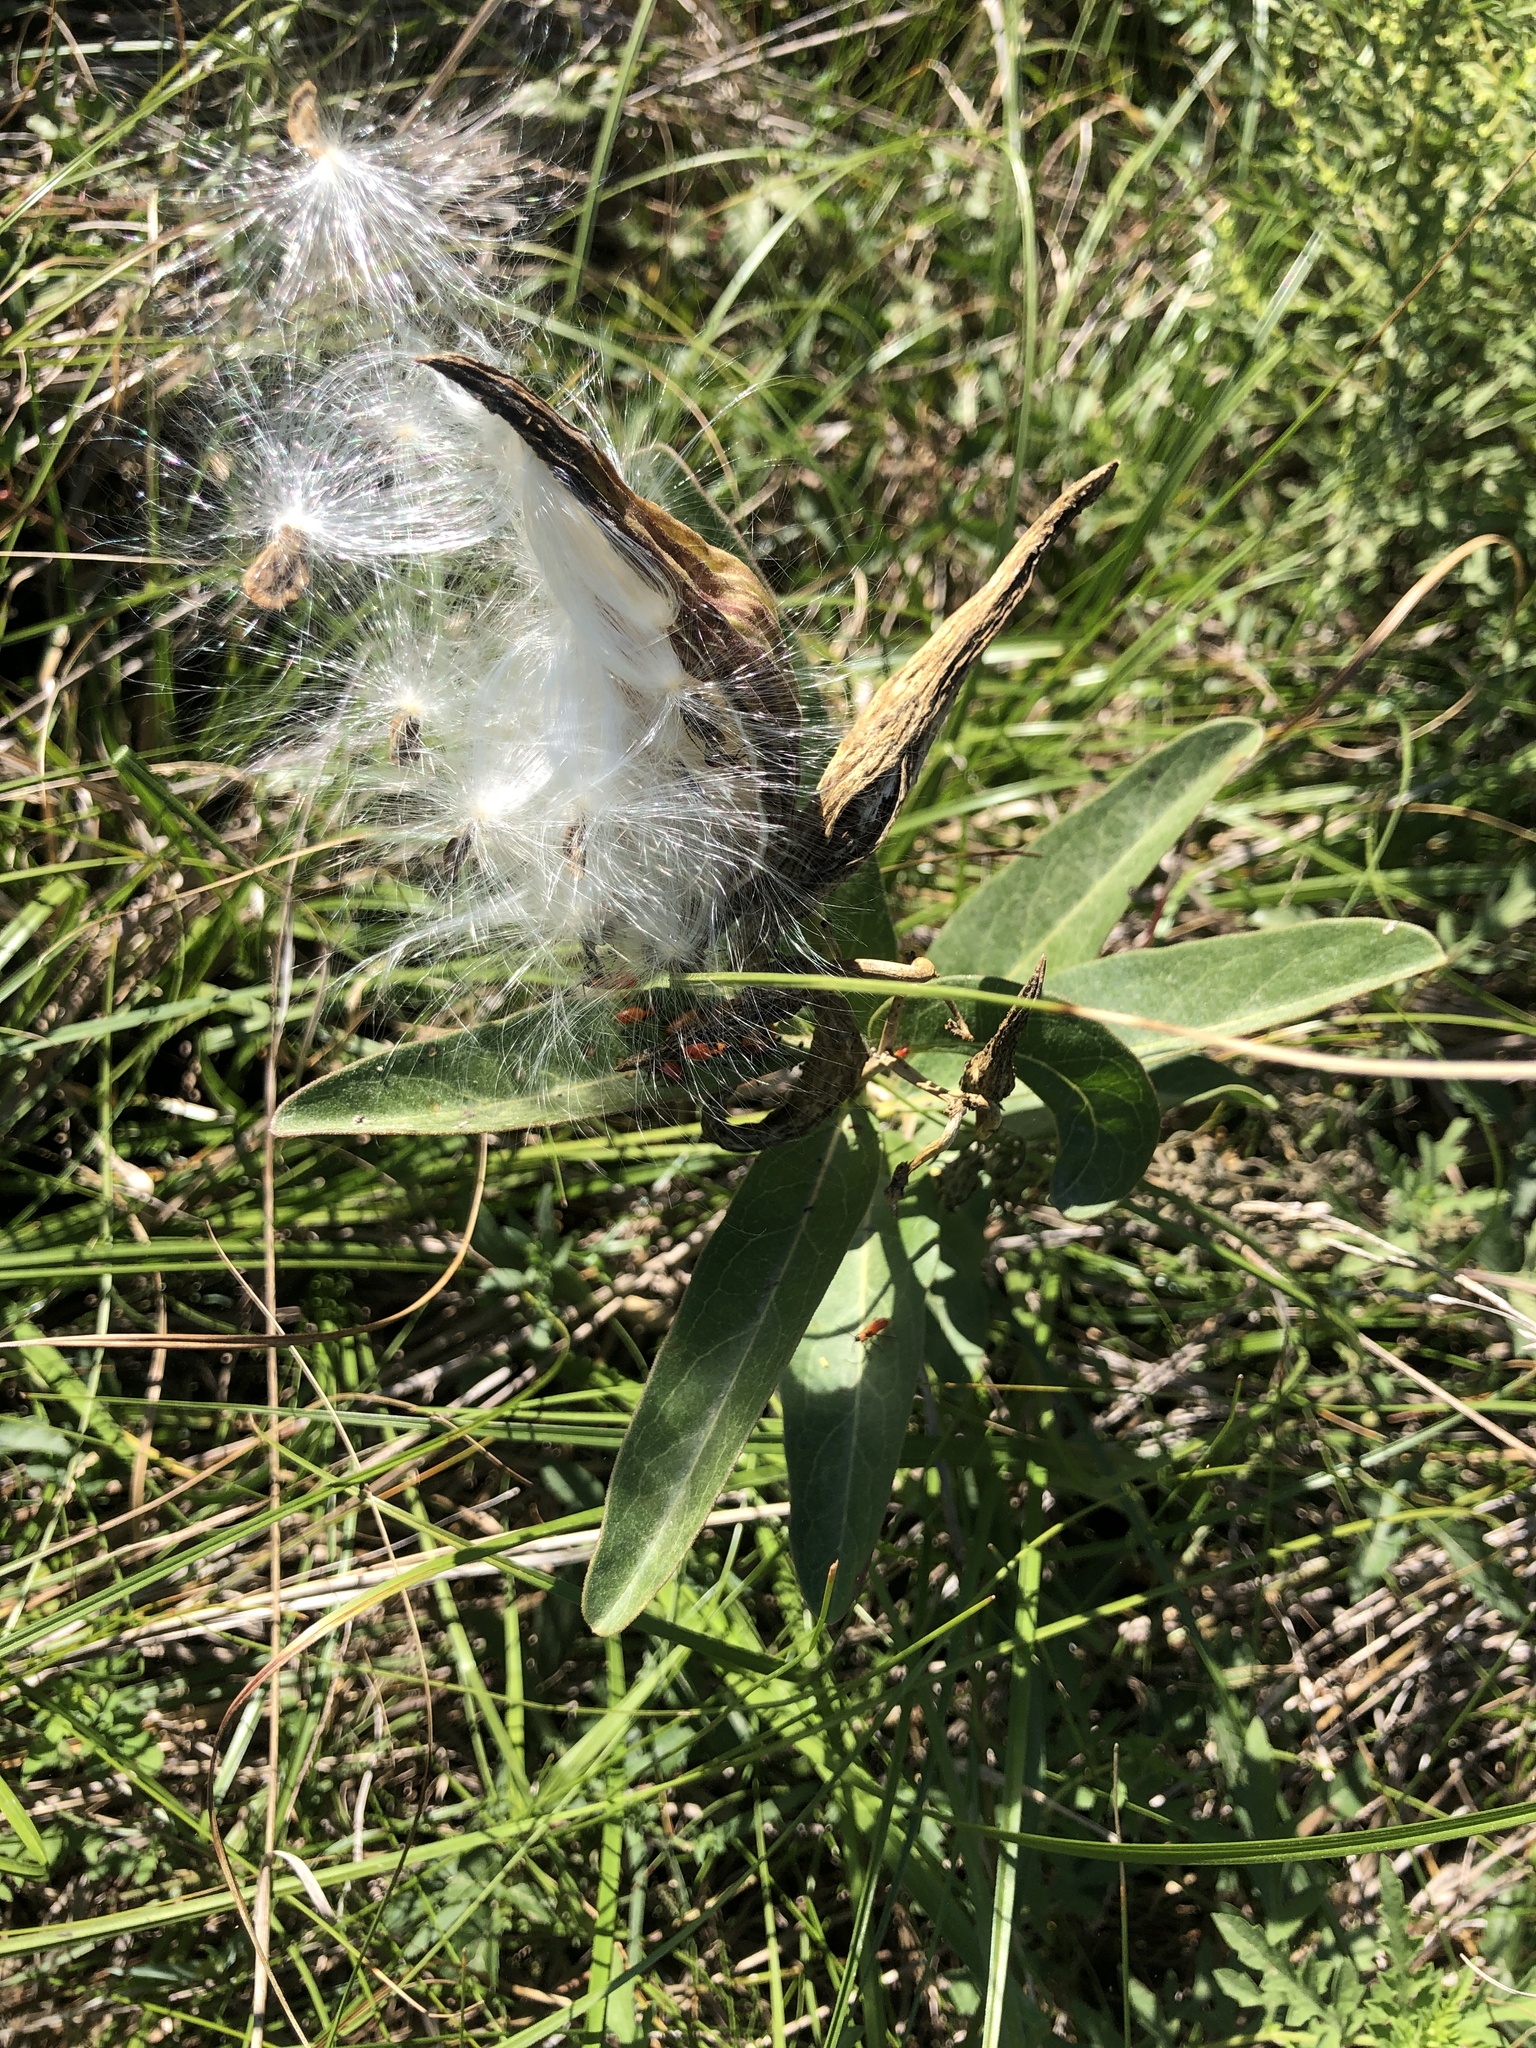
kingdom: Plantae
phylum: Tracheophyta
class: Magnoliopsida
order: Gentianales
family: Apocynaceae
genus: Asclepias
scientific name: Asclepias viridis
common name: Antelope-horns
